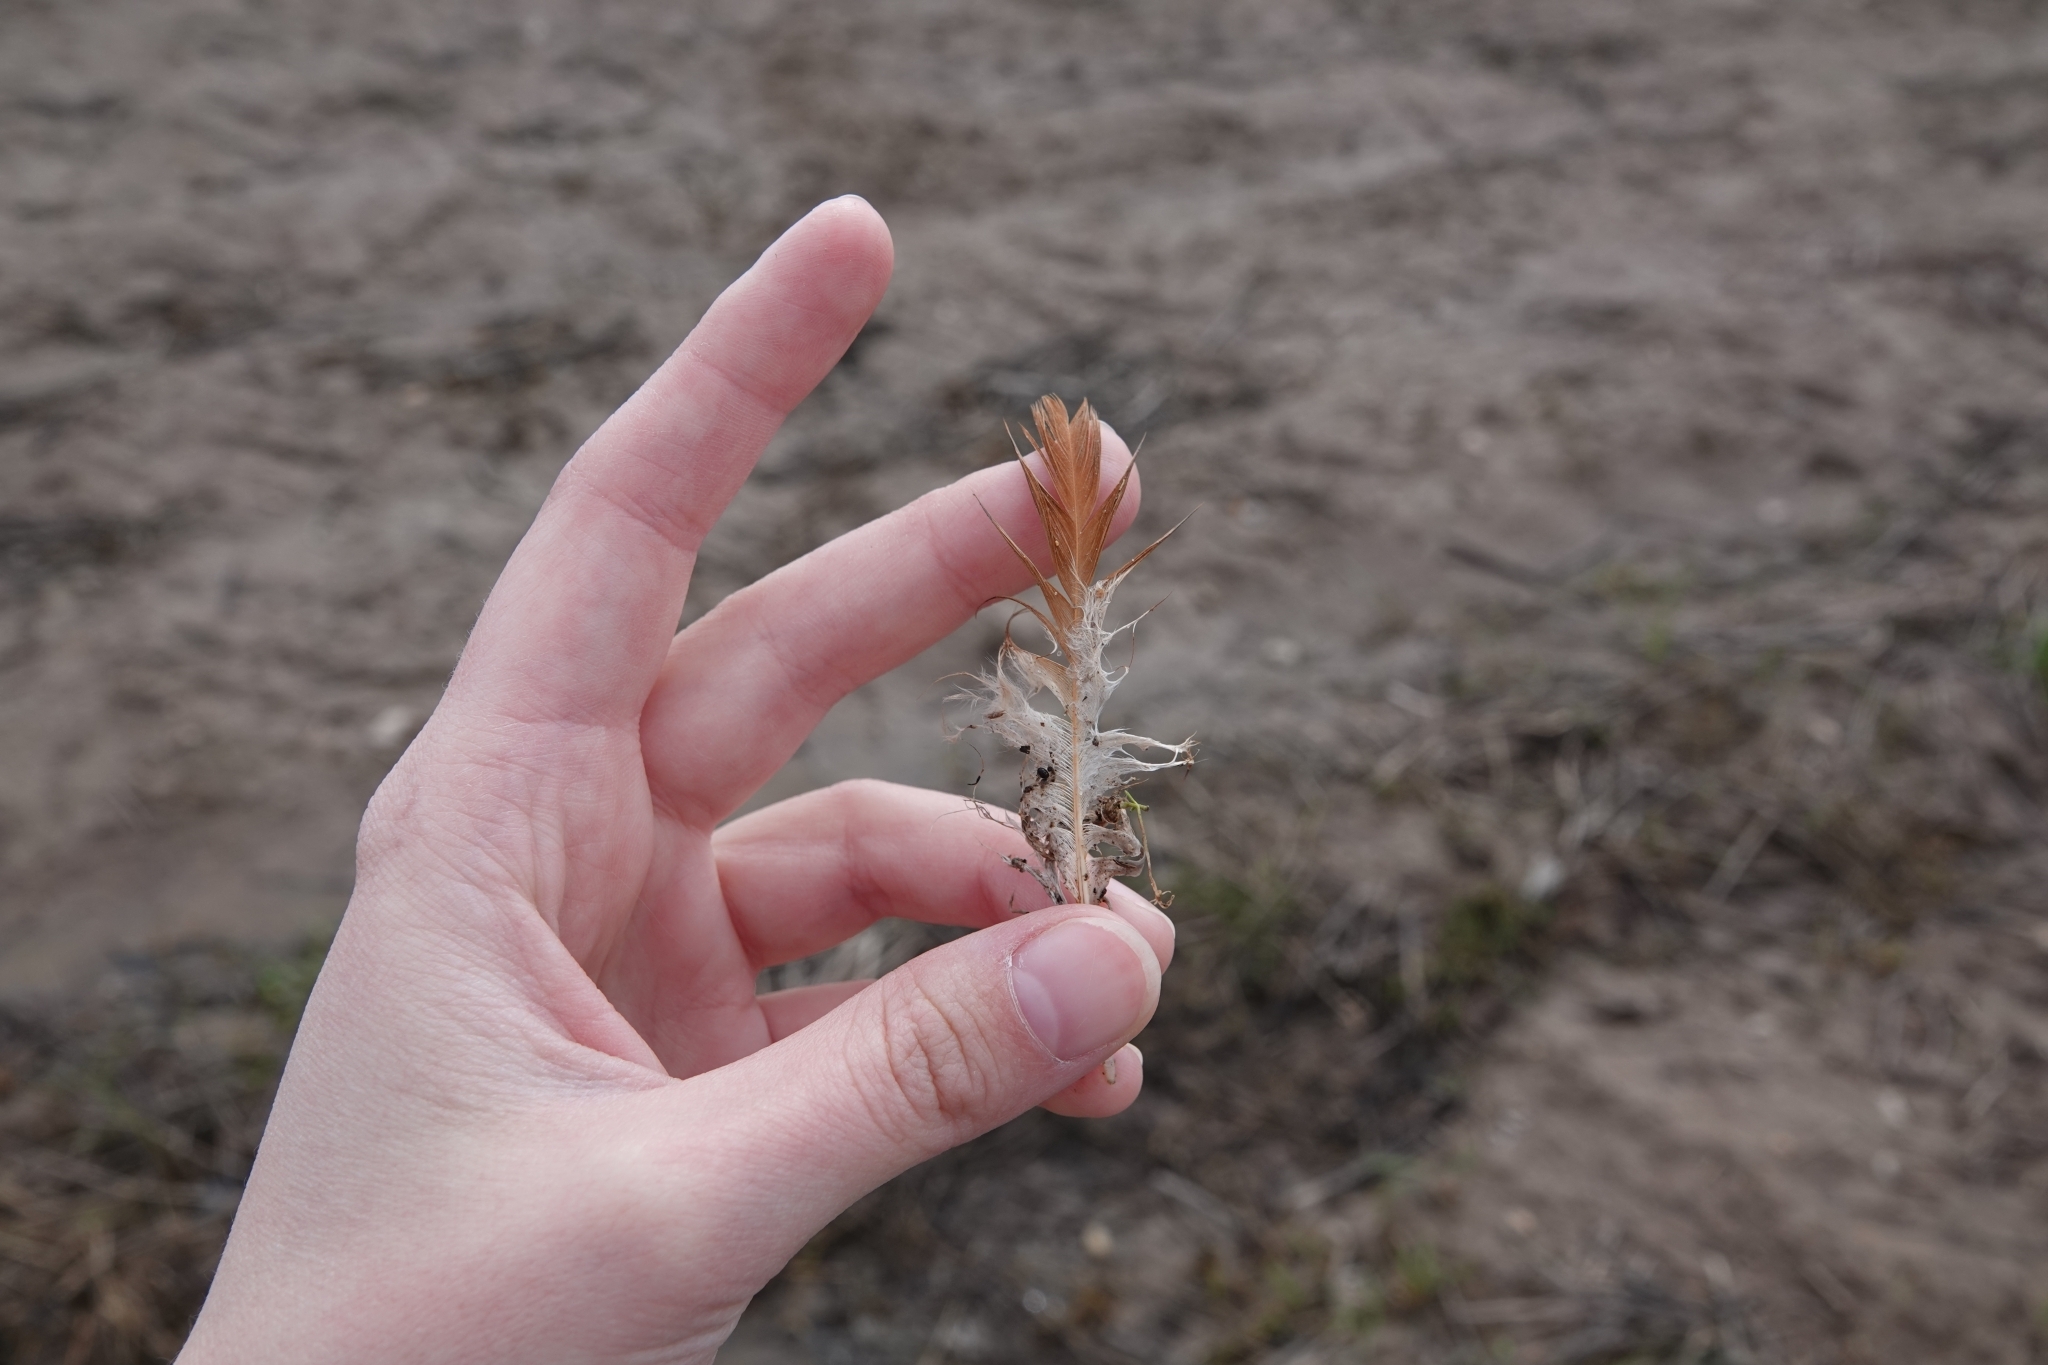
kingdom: Animalia
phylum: Chordata
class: Aves
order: Galliformes
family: Phasianidae
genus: Gallus
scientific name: Gallus gallus
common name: Red junglefowl
